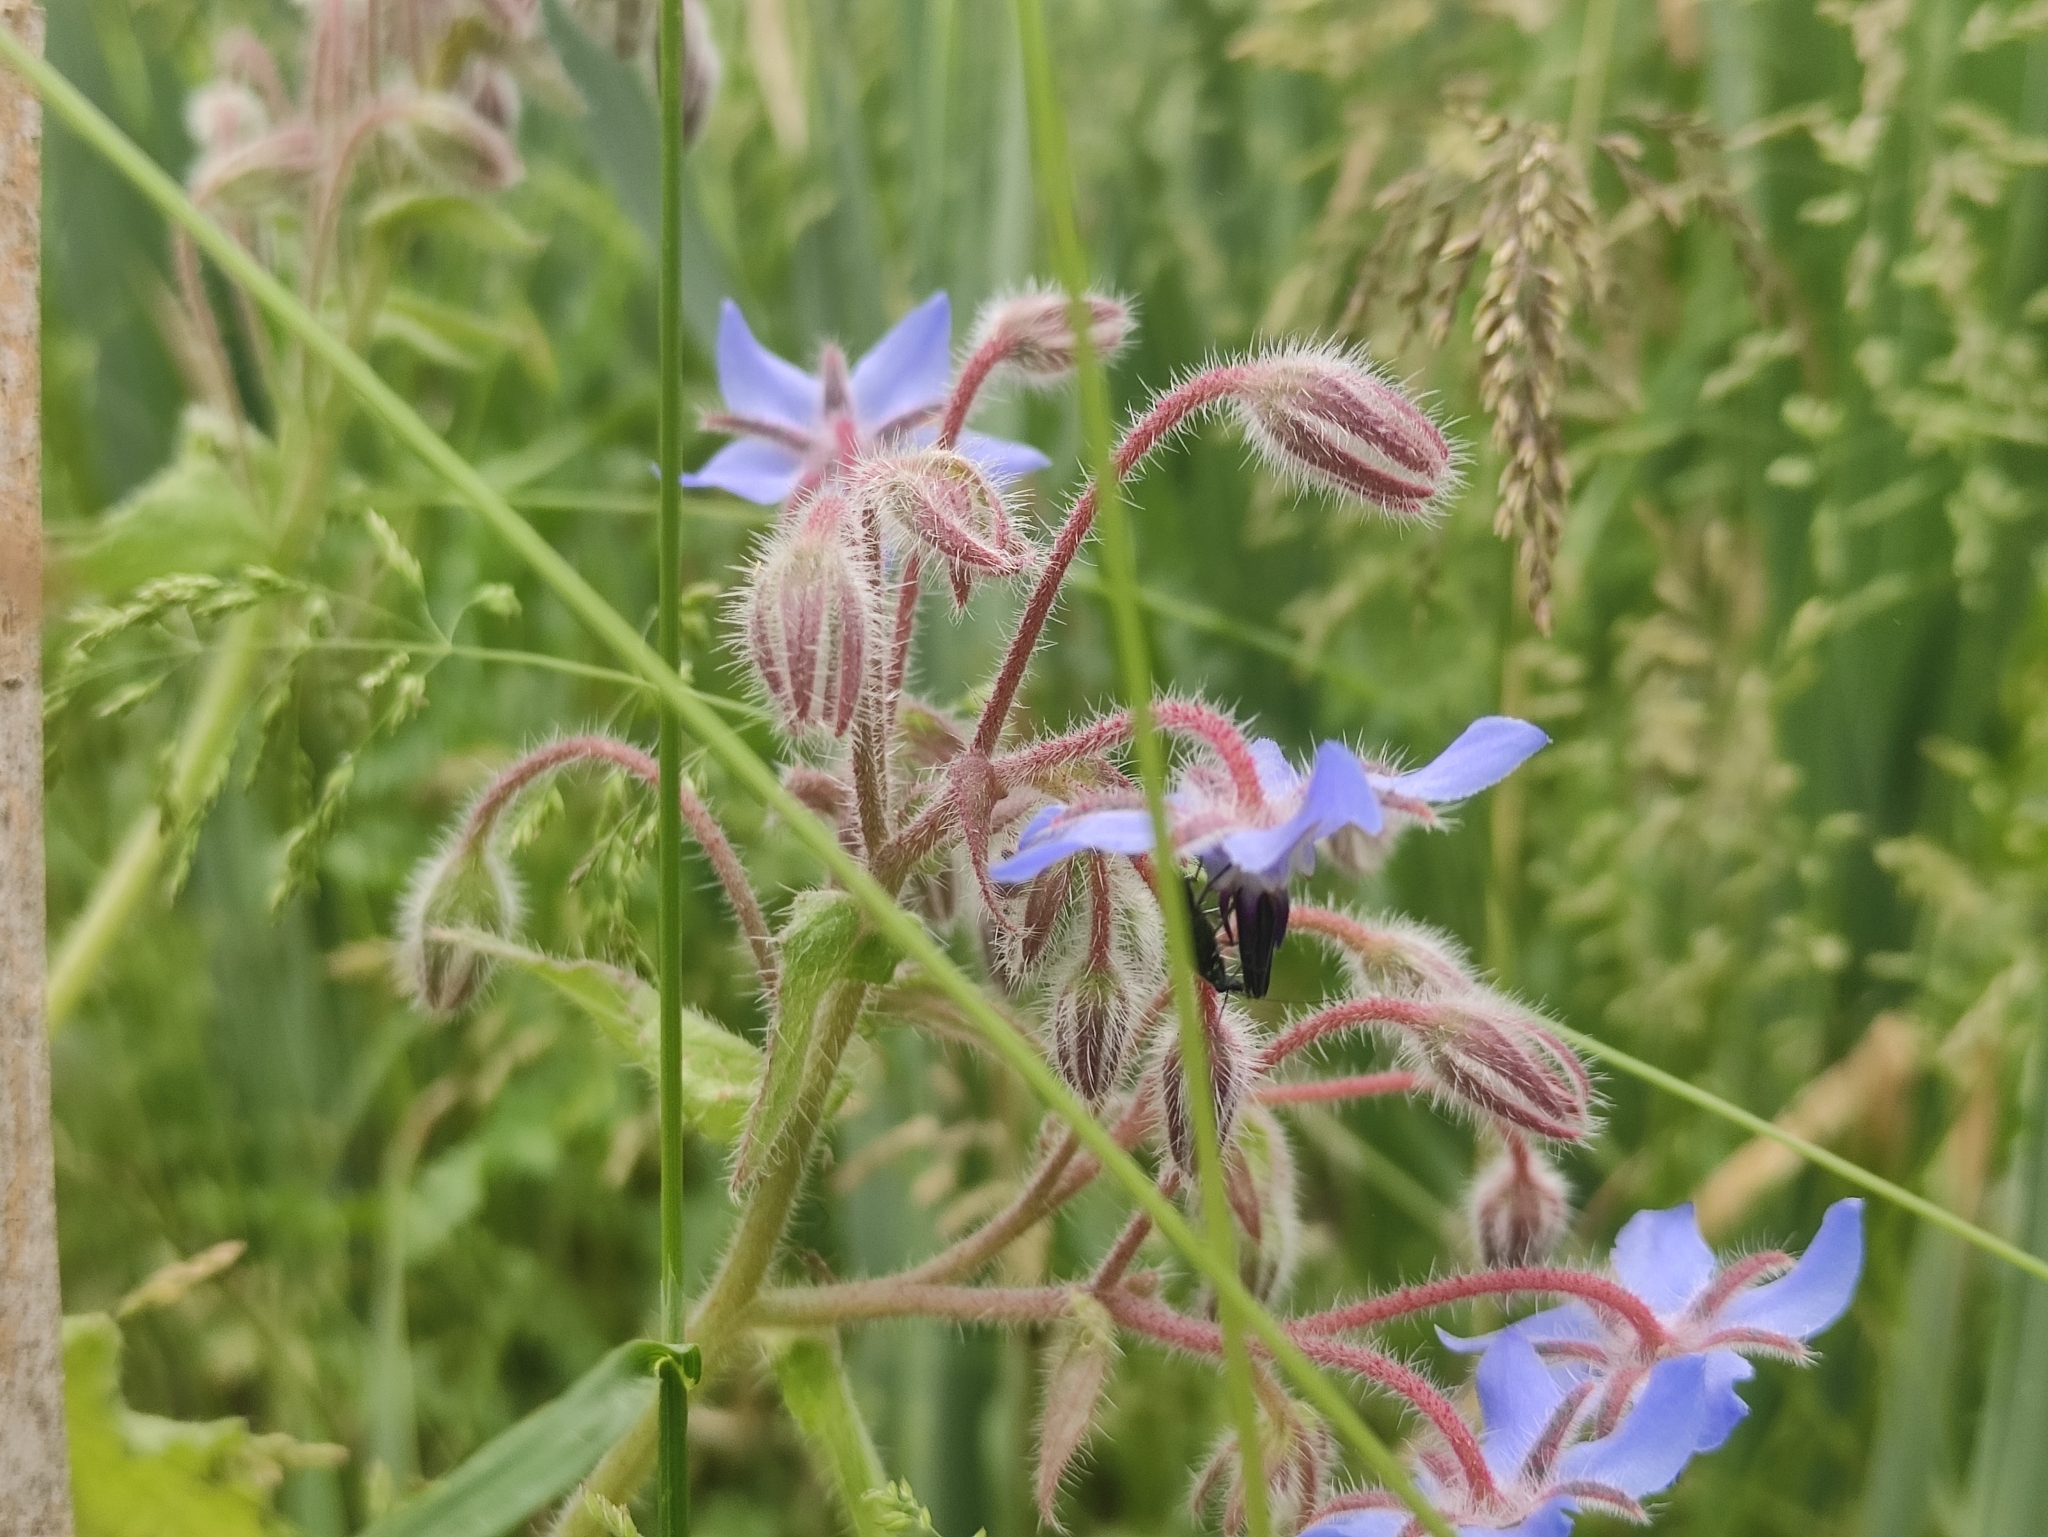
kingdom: Plantae
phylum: Tracheophyta
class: Magnoliopsida
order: Boraginales
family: Boraginaceae
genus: Borago
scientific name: Borago officinalis
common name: Borage
